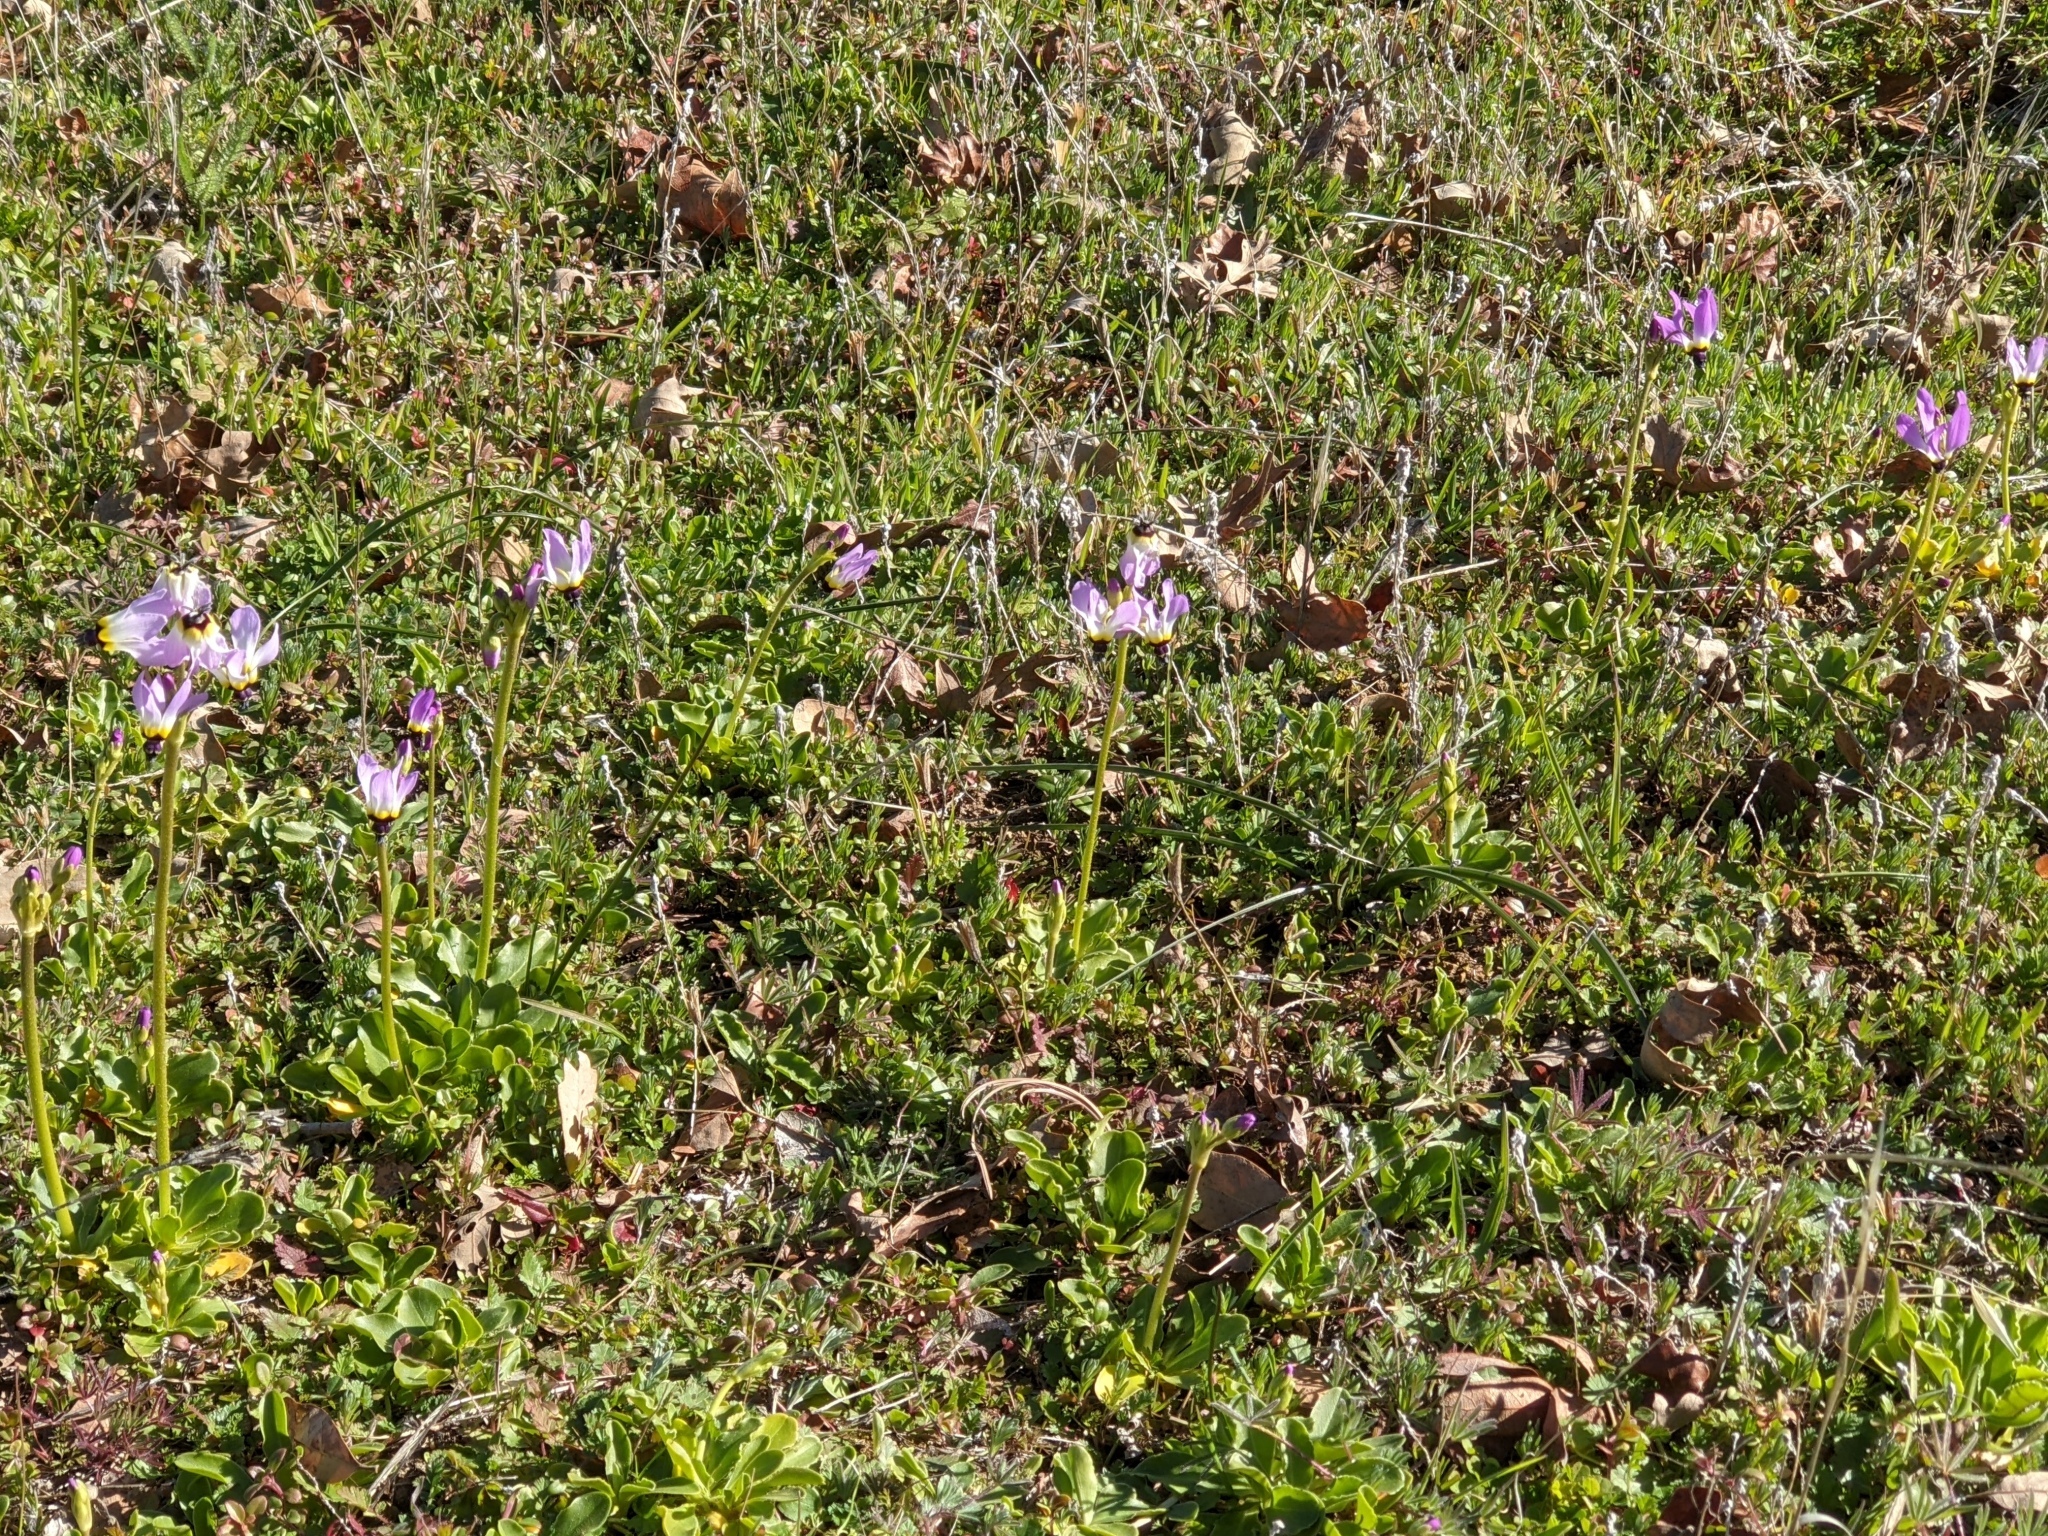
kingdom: Plantae
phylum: Tracheophyta
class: Magnoliopsida
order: Ericales
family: Primulaceae
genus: Dodecatheon
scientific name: Dodecatheon clevelandii
